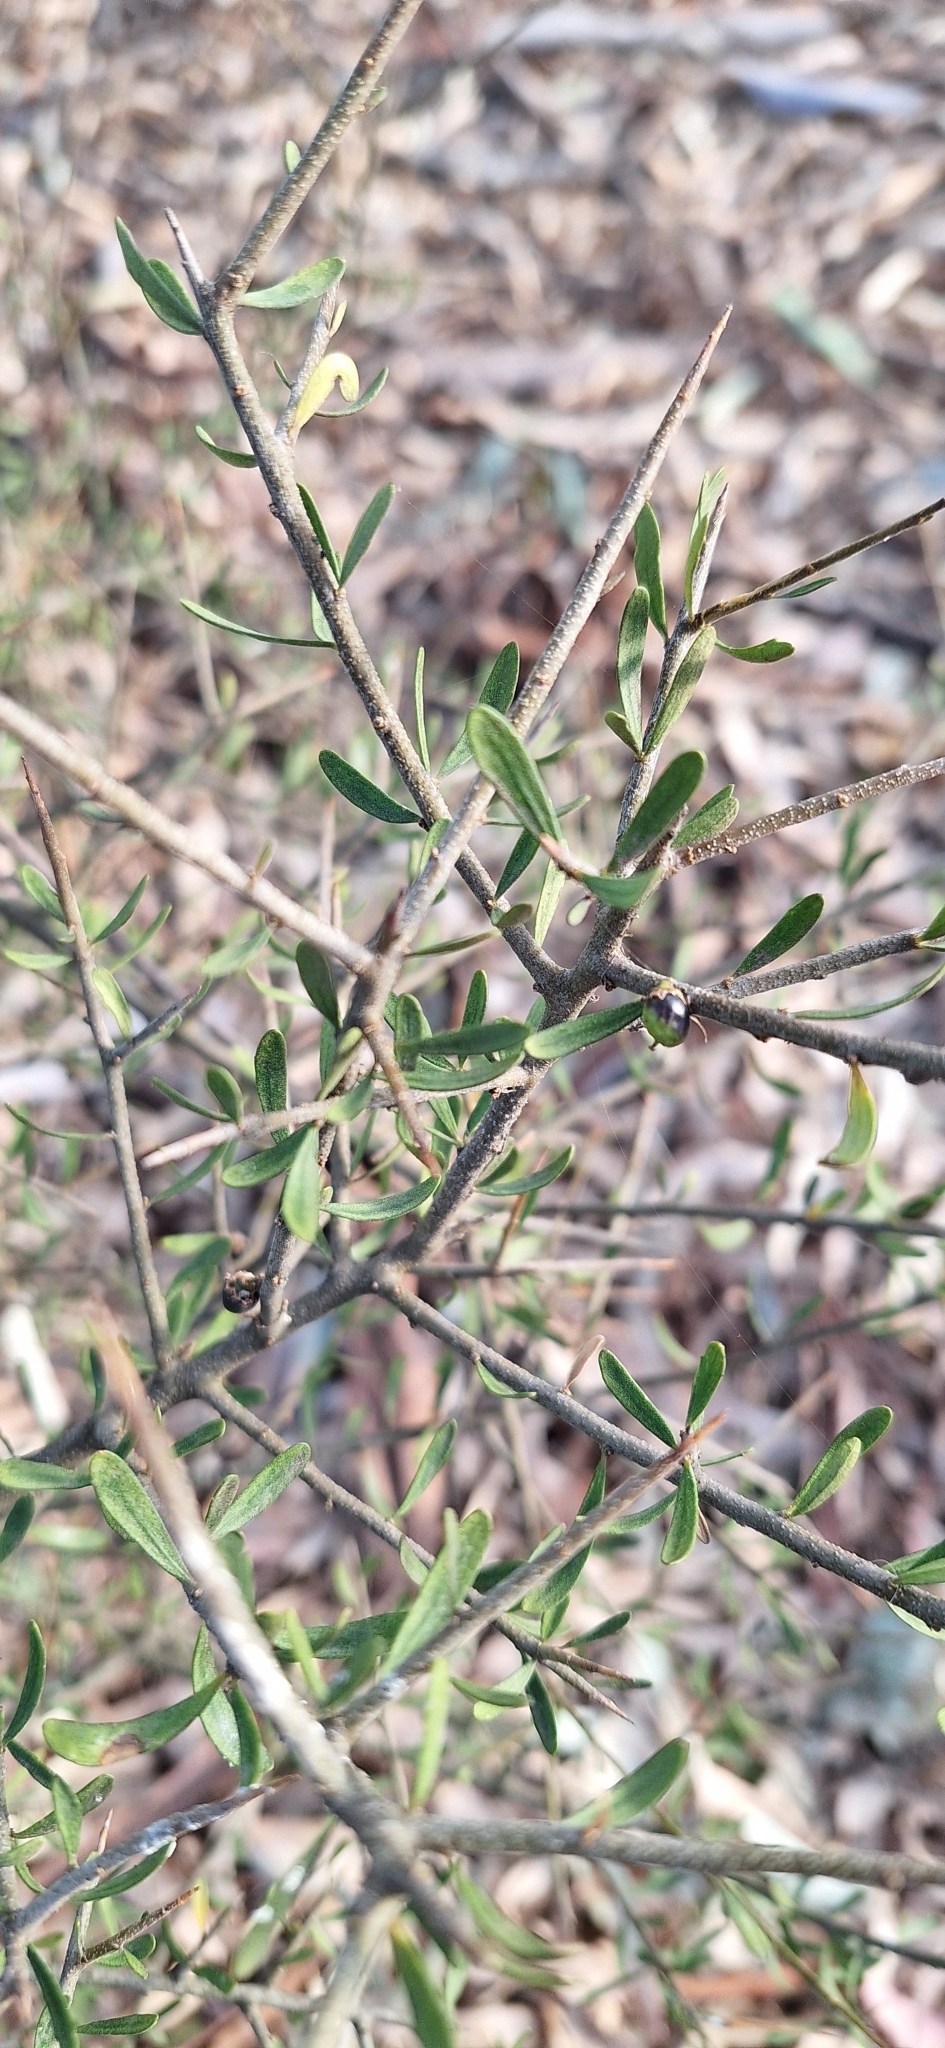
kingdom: Plantae
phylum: Tracheophyta
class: Magnoliopsida
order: Malpighiales
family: Violaceae
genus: Melicytus
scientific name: Melicytus dentatus
